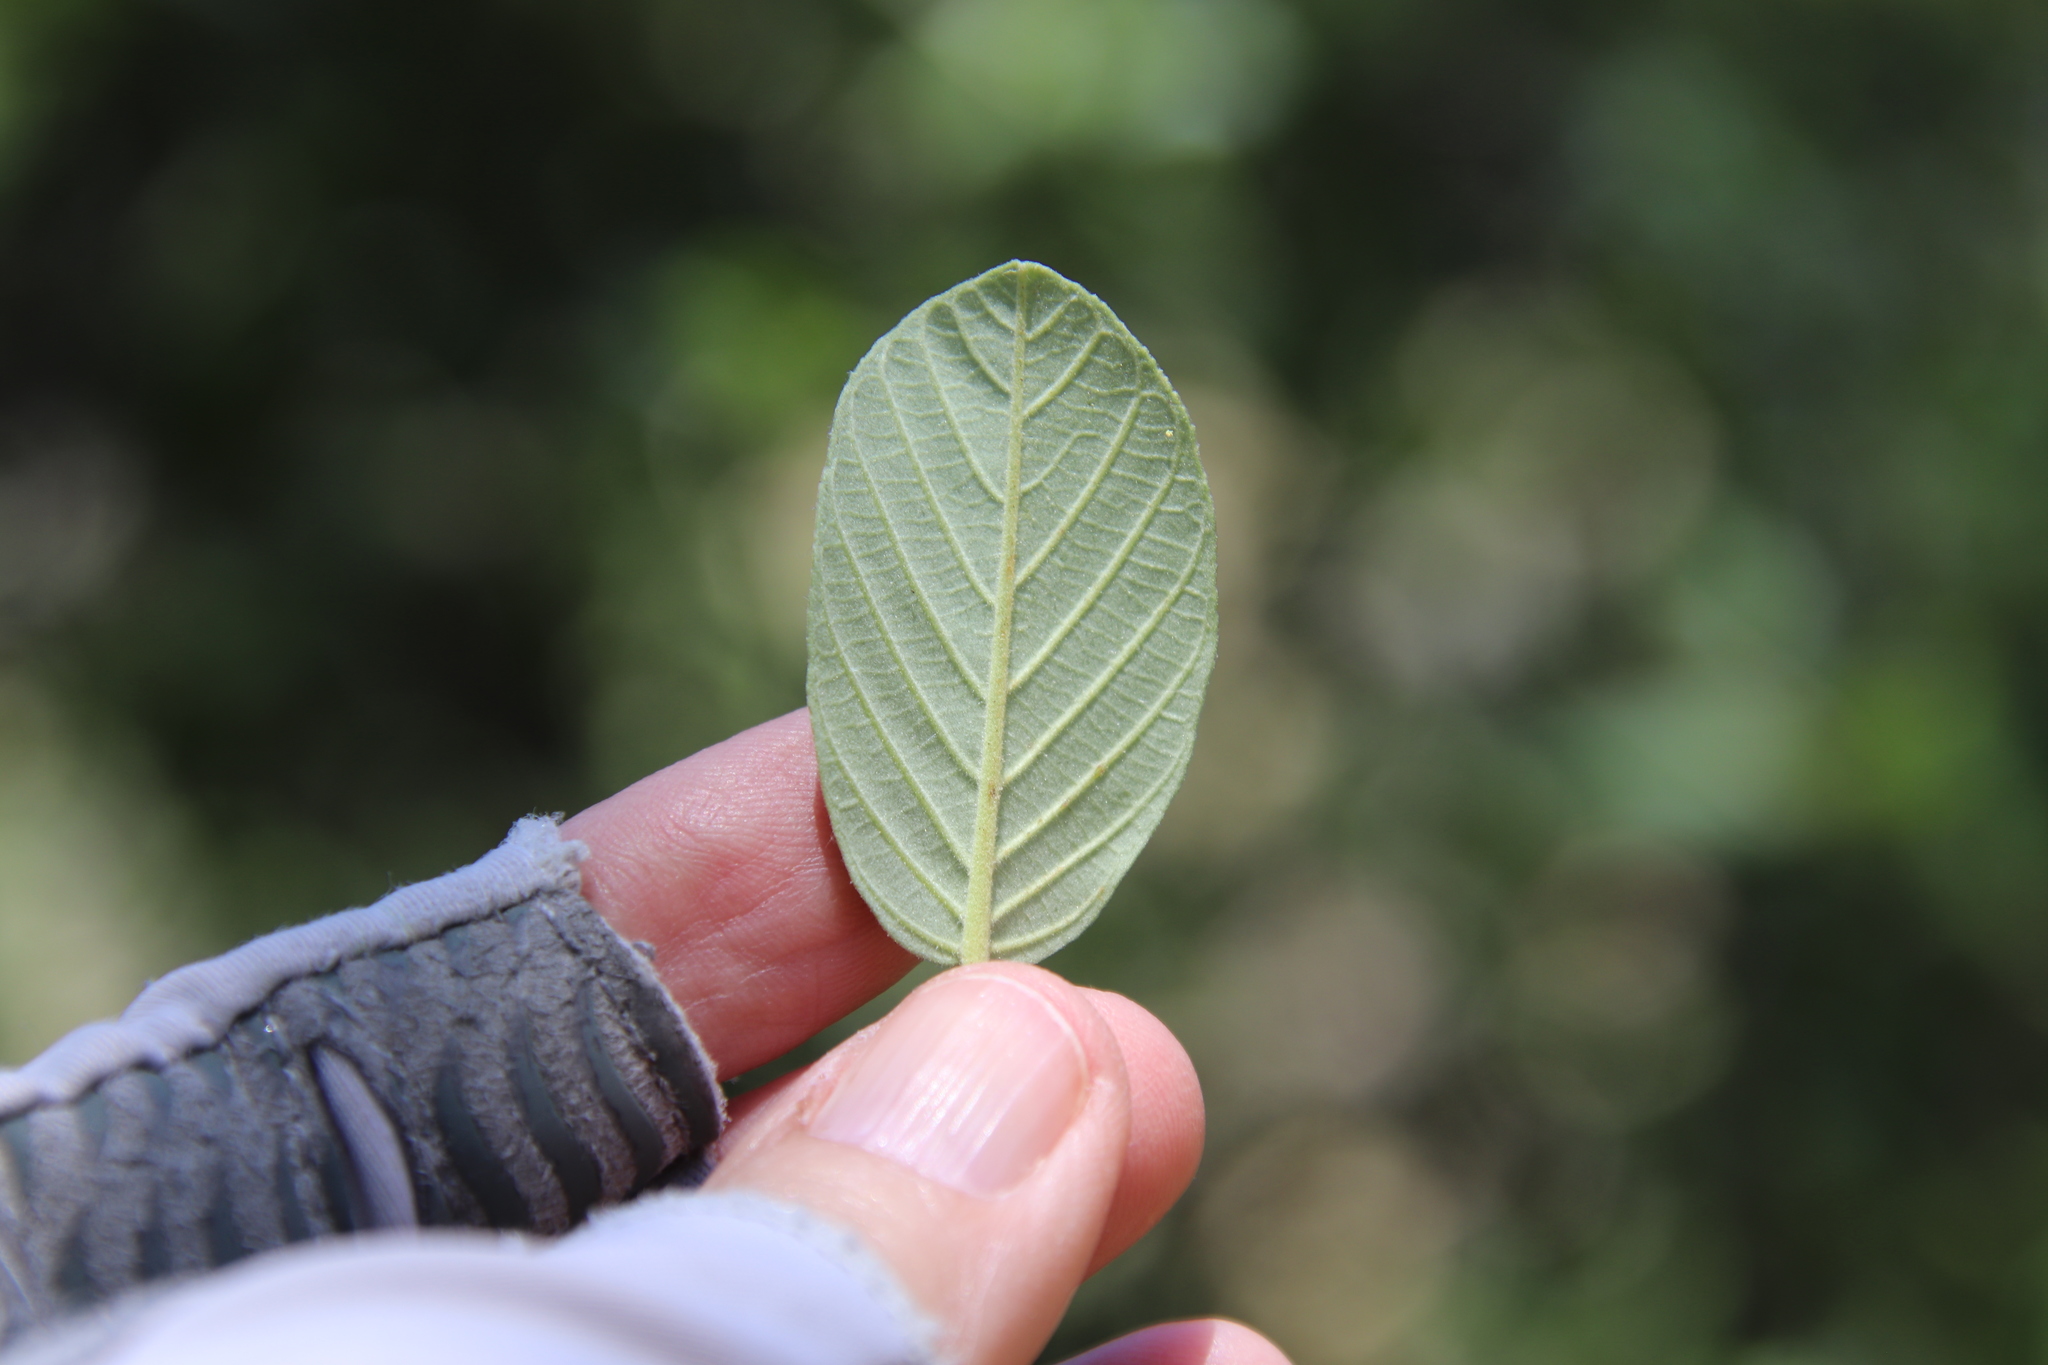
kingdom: Plantae
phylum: Tracheophyta
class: Magnoliopsida
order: Rosales
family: Rhamnaceae
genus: Frangula
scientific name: Frangula californica
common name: California buckthorn
